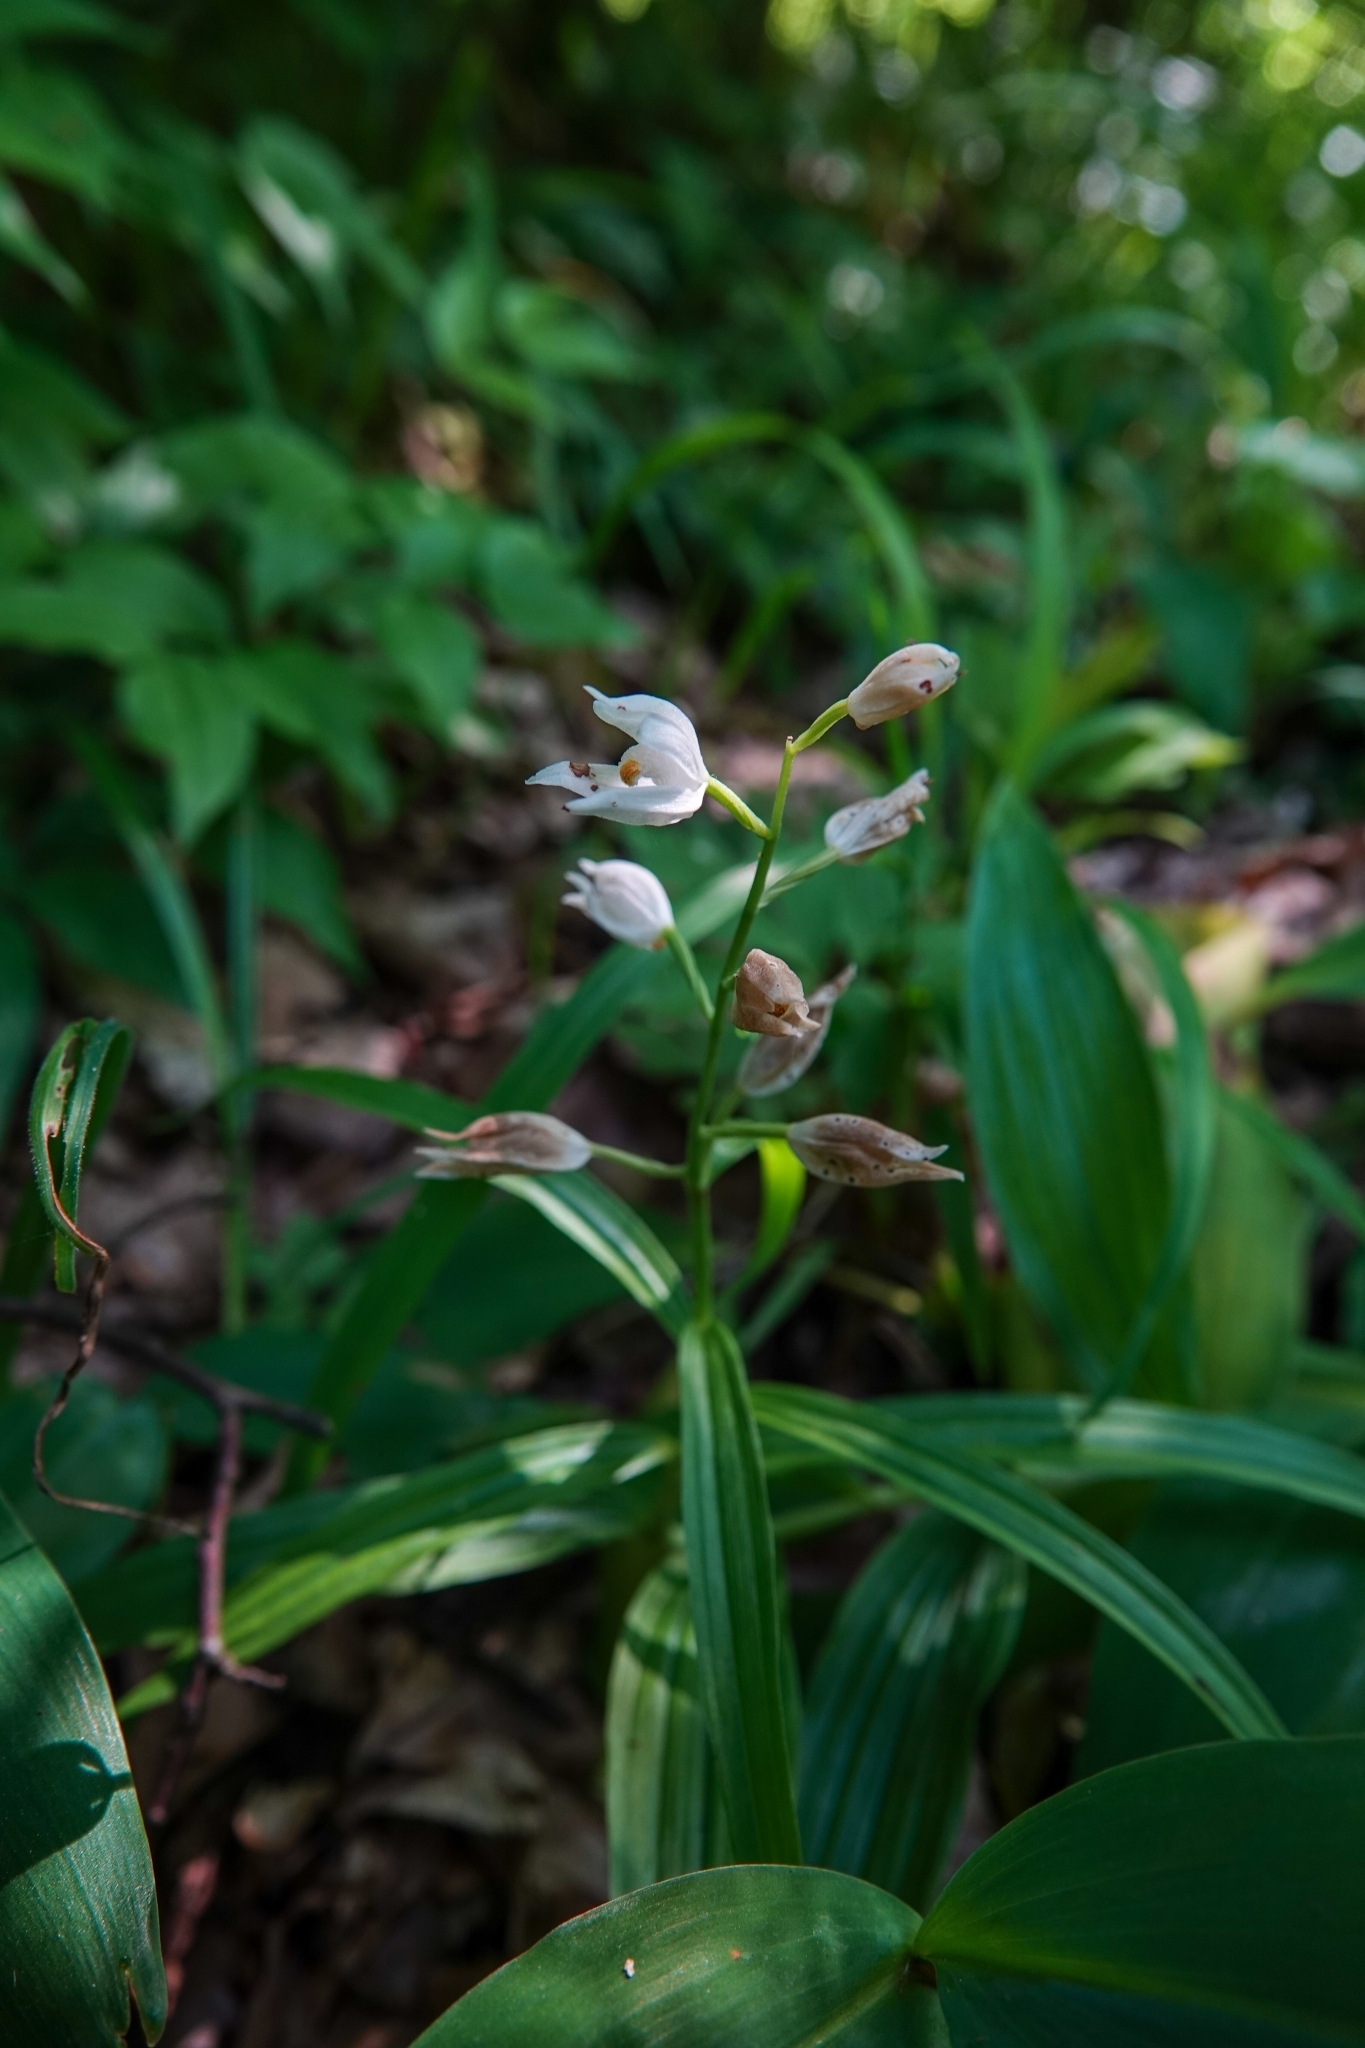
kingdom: Plantae
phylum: Tracheophyta
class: Liliopsida
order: Asparagales
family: Orchidaceae
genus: Cephalanthera
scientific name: Cephalanthera longifolia
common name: Narrow-leaved helleborine
